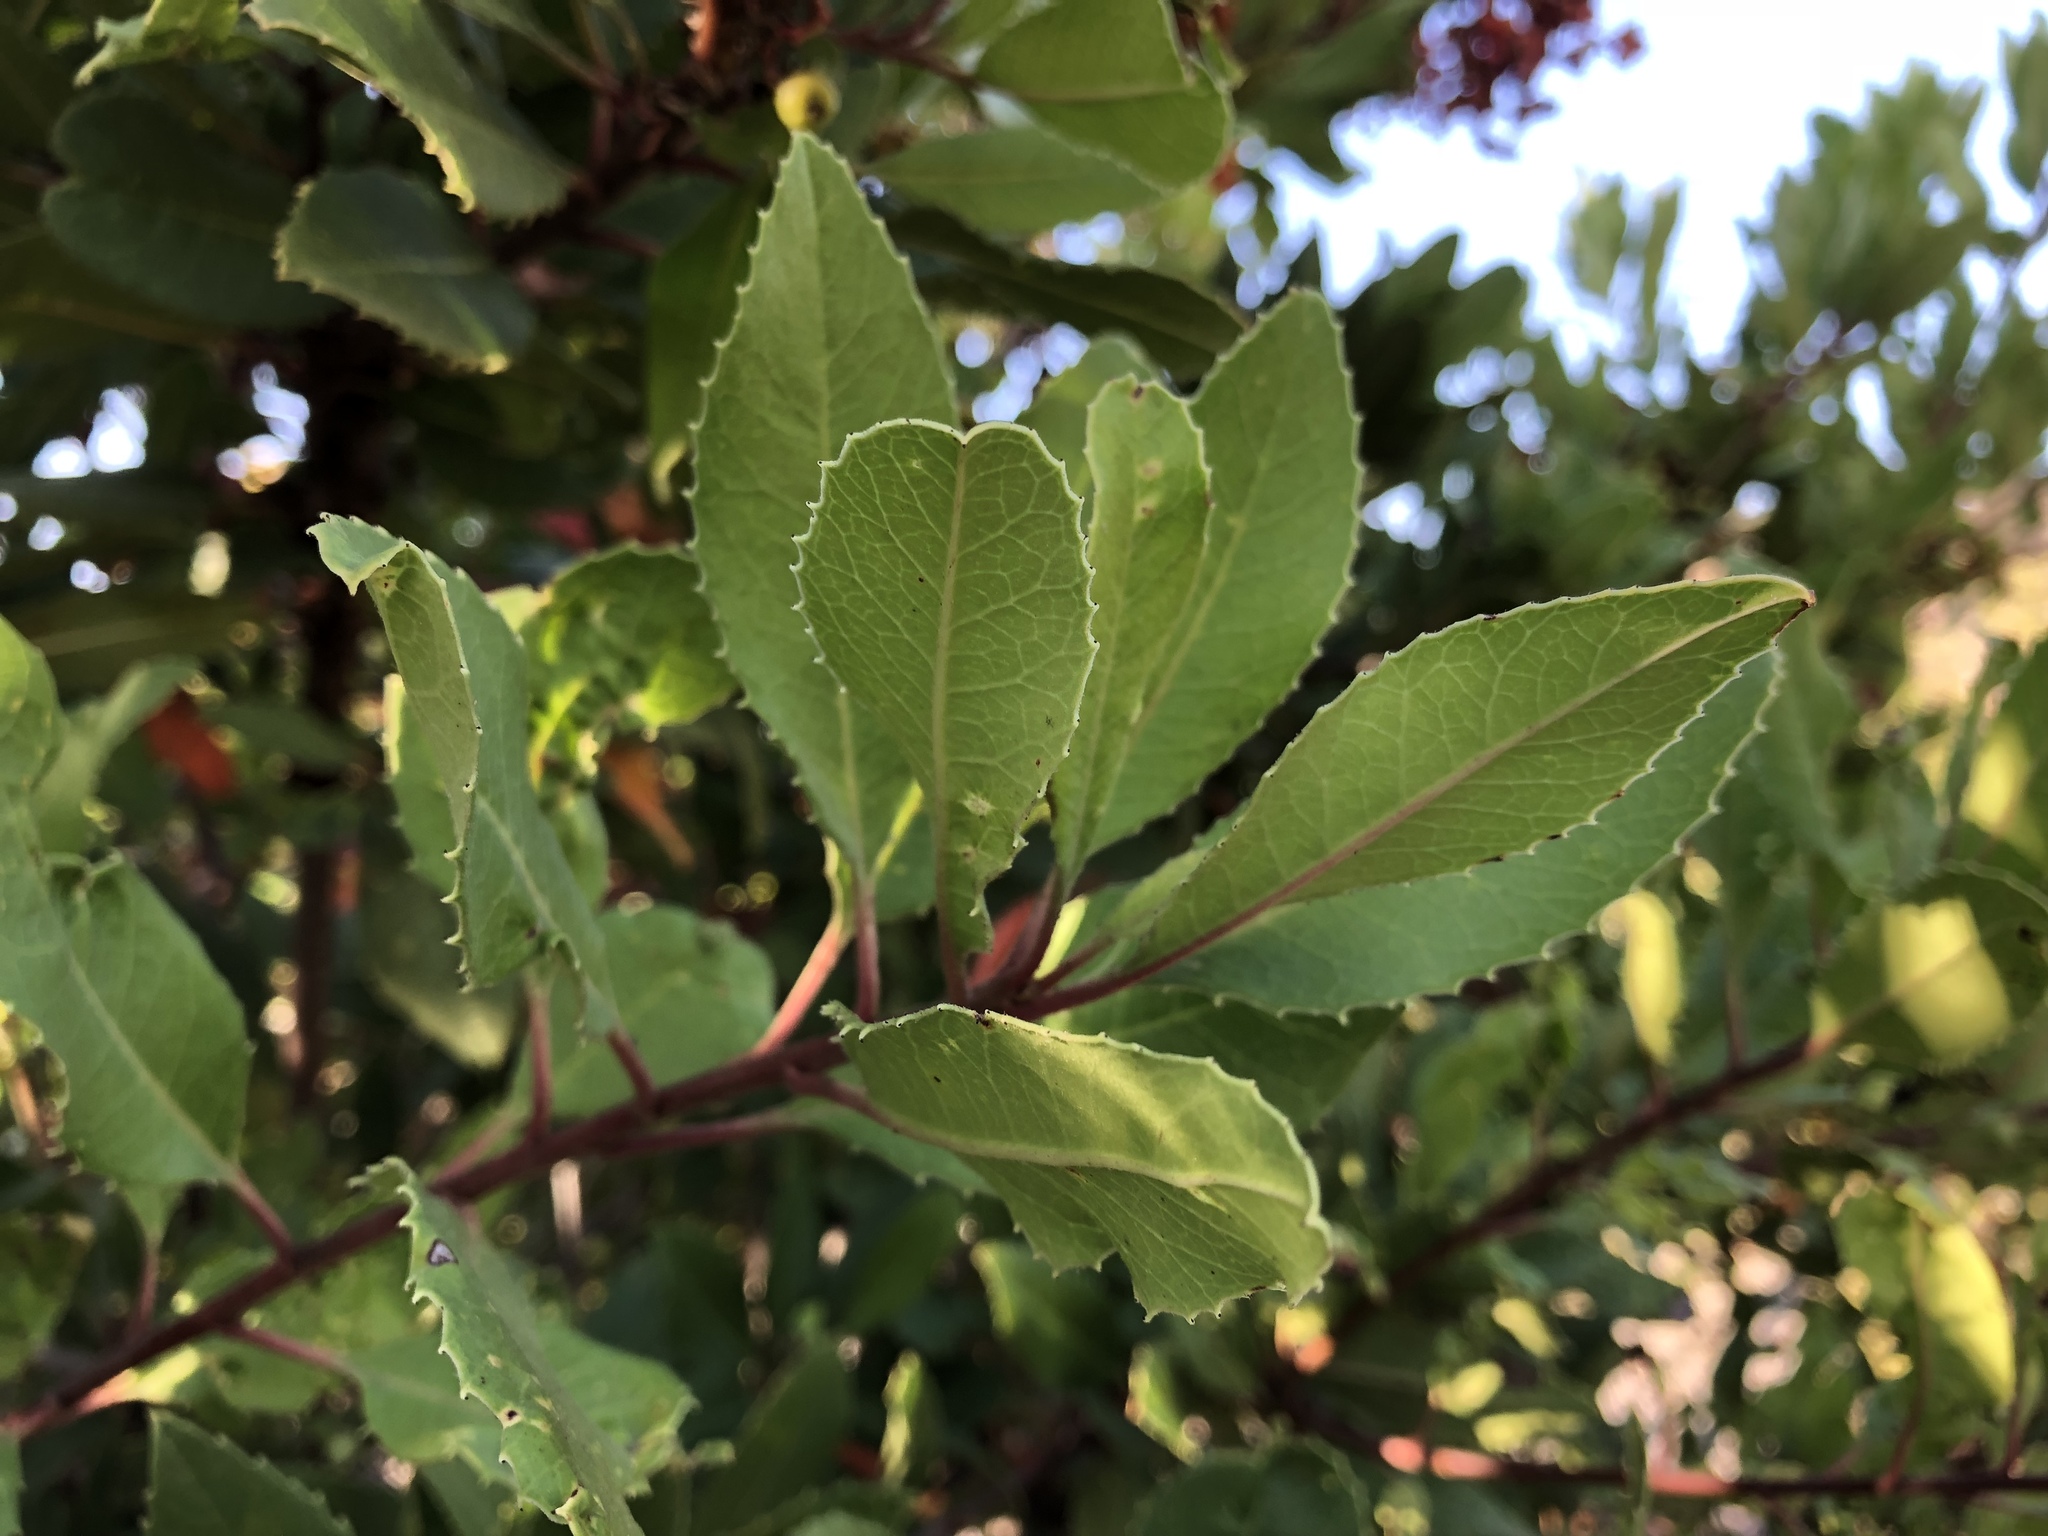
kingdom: Plantae
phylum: Tracheophyta
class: Magnoliopsida
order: Rosales
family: Rosaceae
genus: Heteromeles
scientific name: Heteromeles arbutifolia
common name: California-holly
